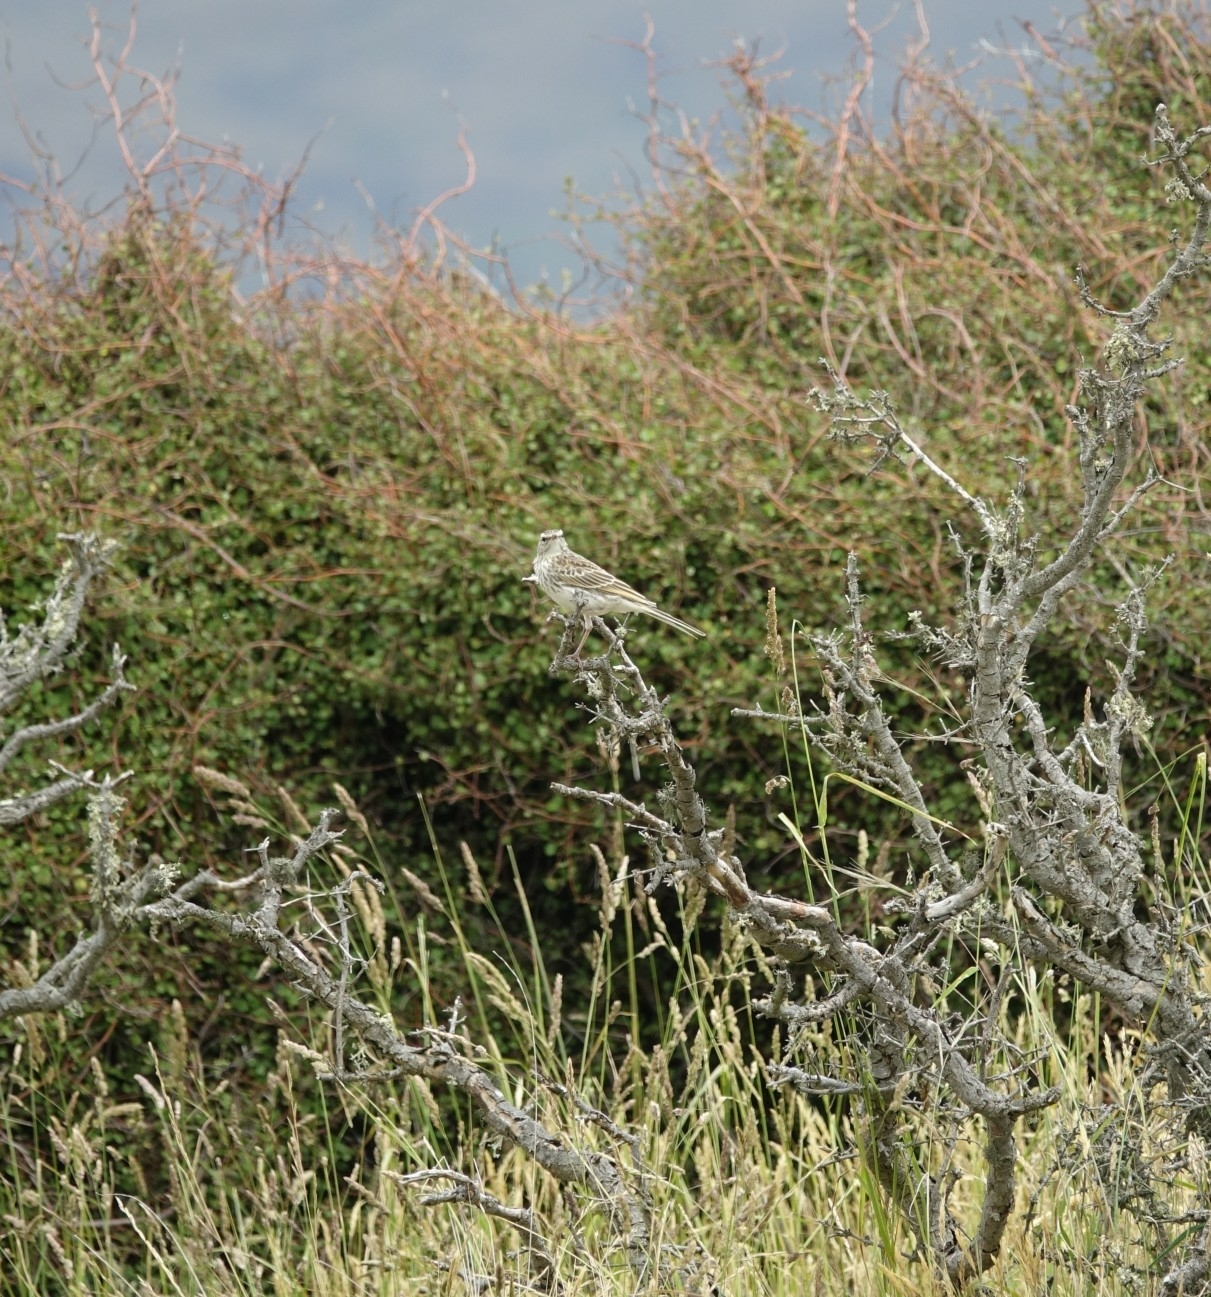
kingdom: Animalia
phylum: Chordata
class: Aves
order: Passeriformes
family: Motacillidae
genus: Anthus
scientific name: Anthus novaeseelandiae
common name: New zealand pipit
